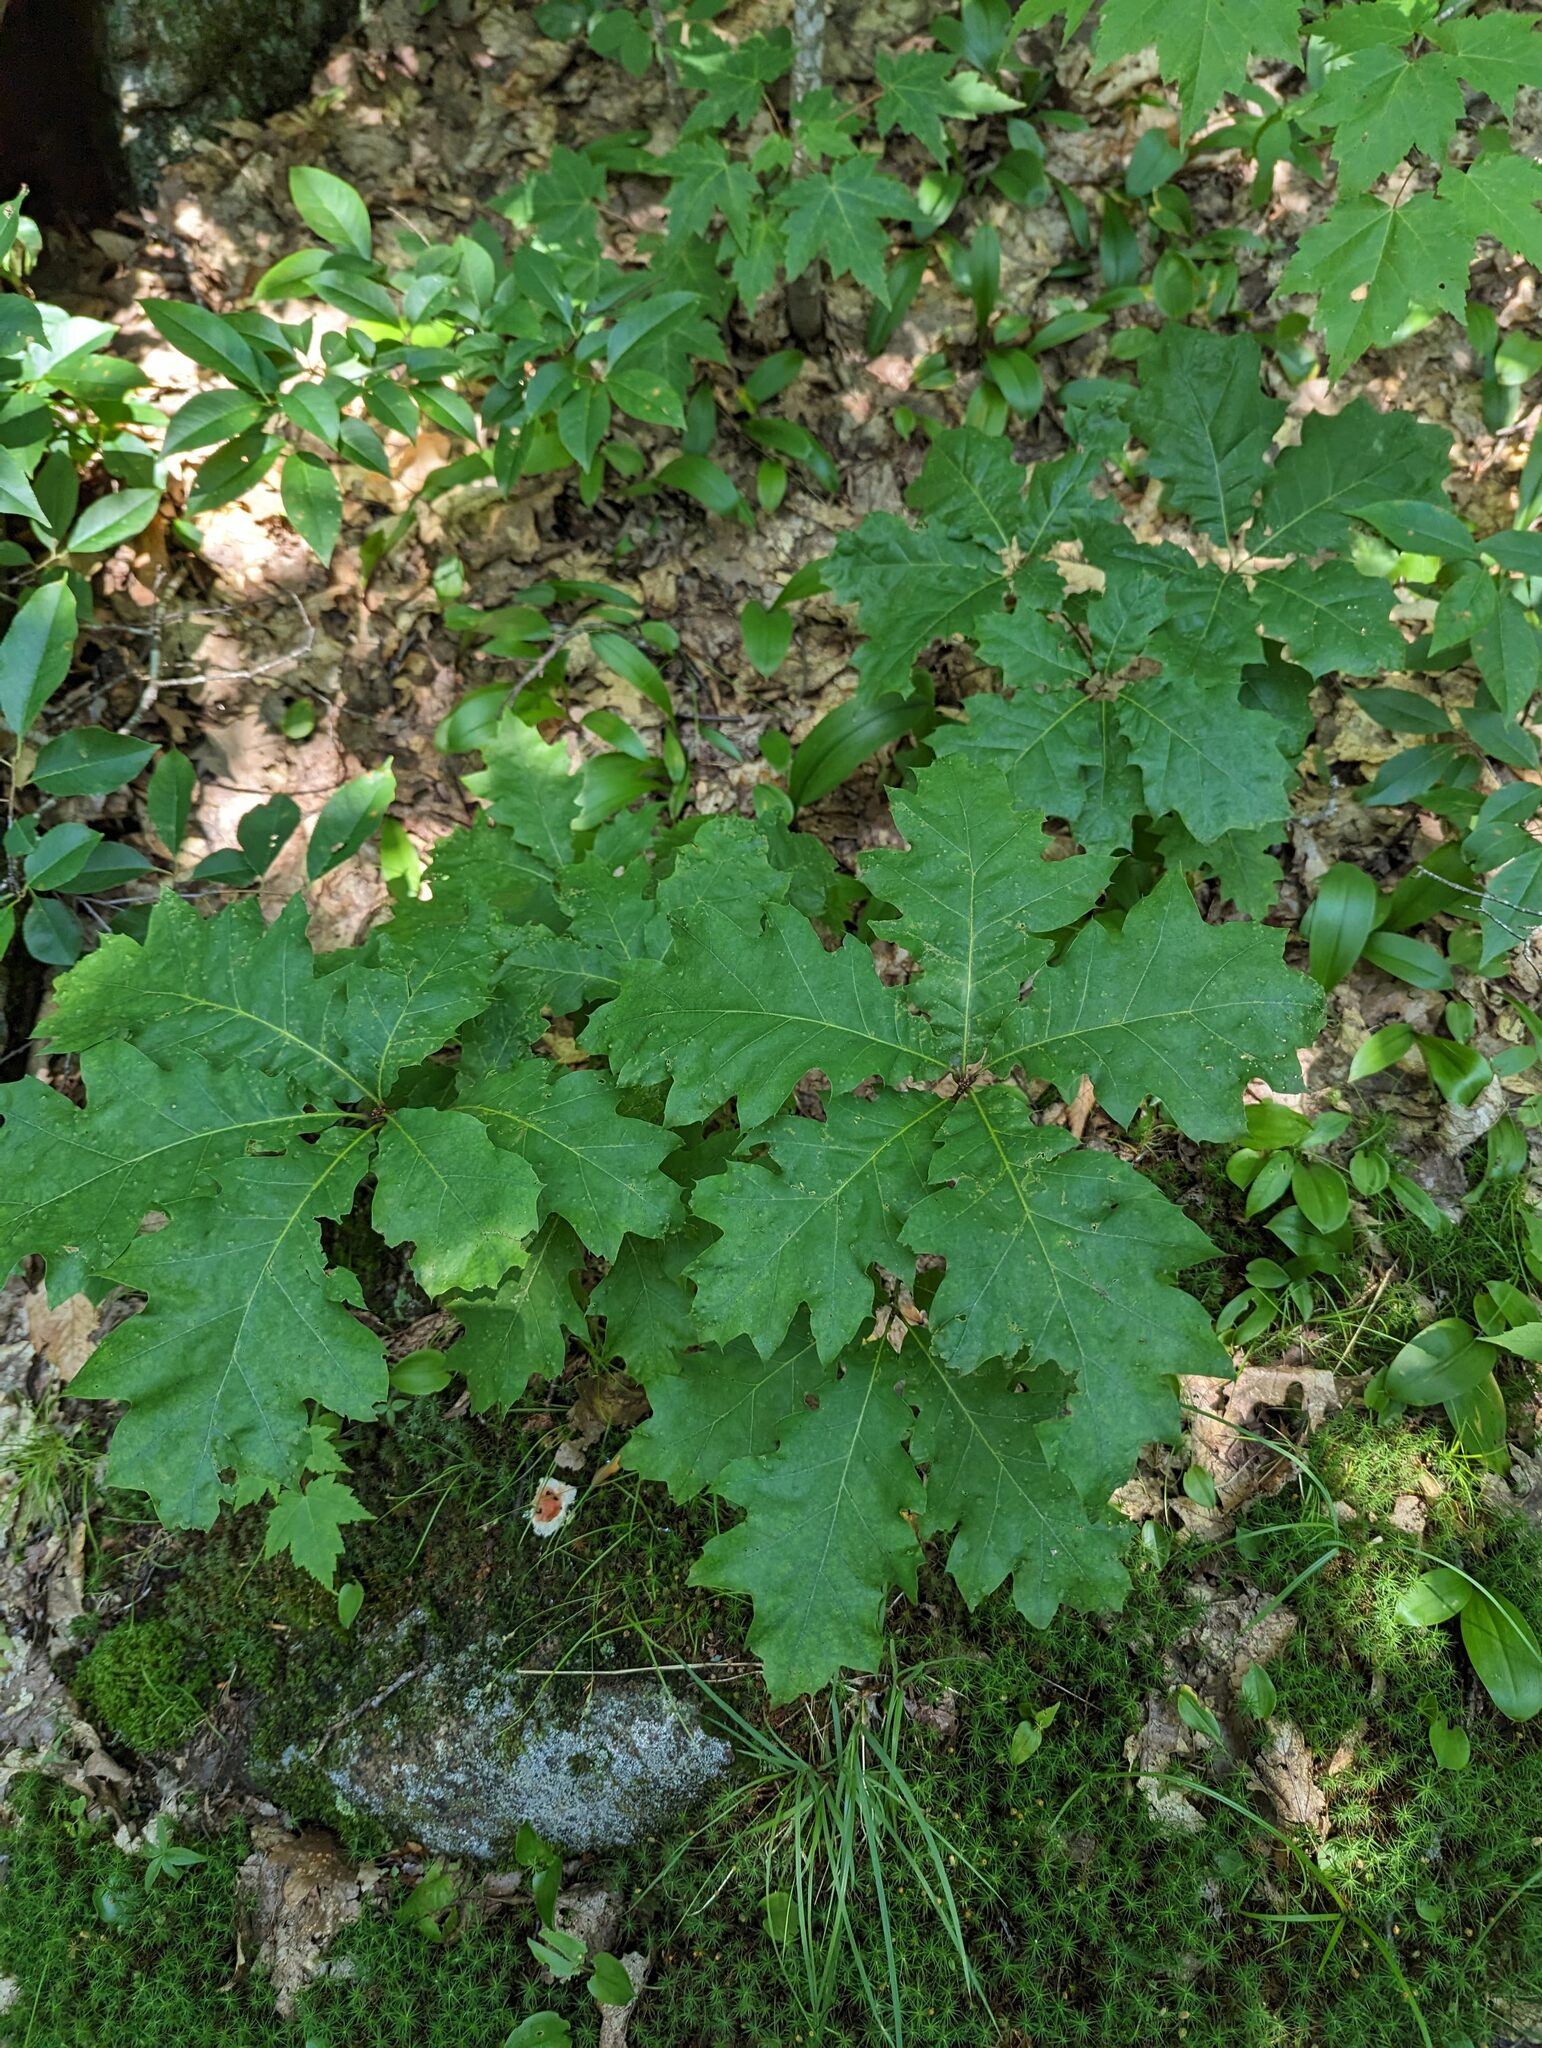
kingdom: Plantae
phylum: Tracheophyta
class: Magnoliopsida
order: Fagales
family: Fagaceae
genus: Quercus
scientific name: Quercus rubra
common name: Red oak
